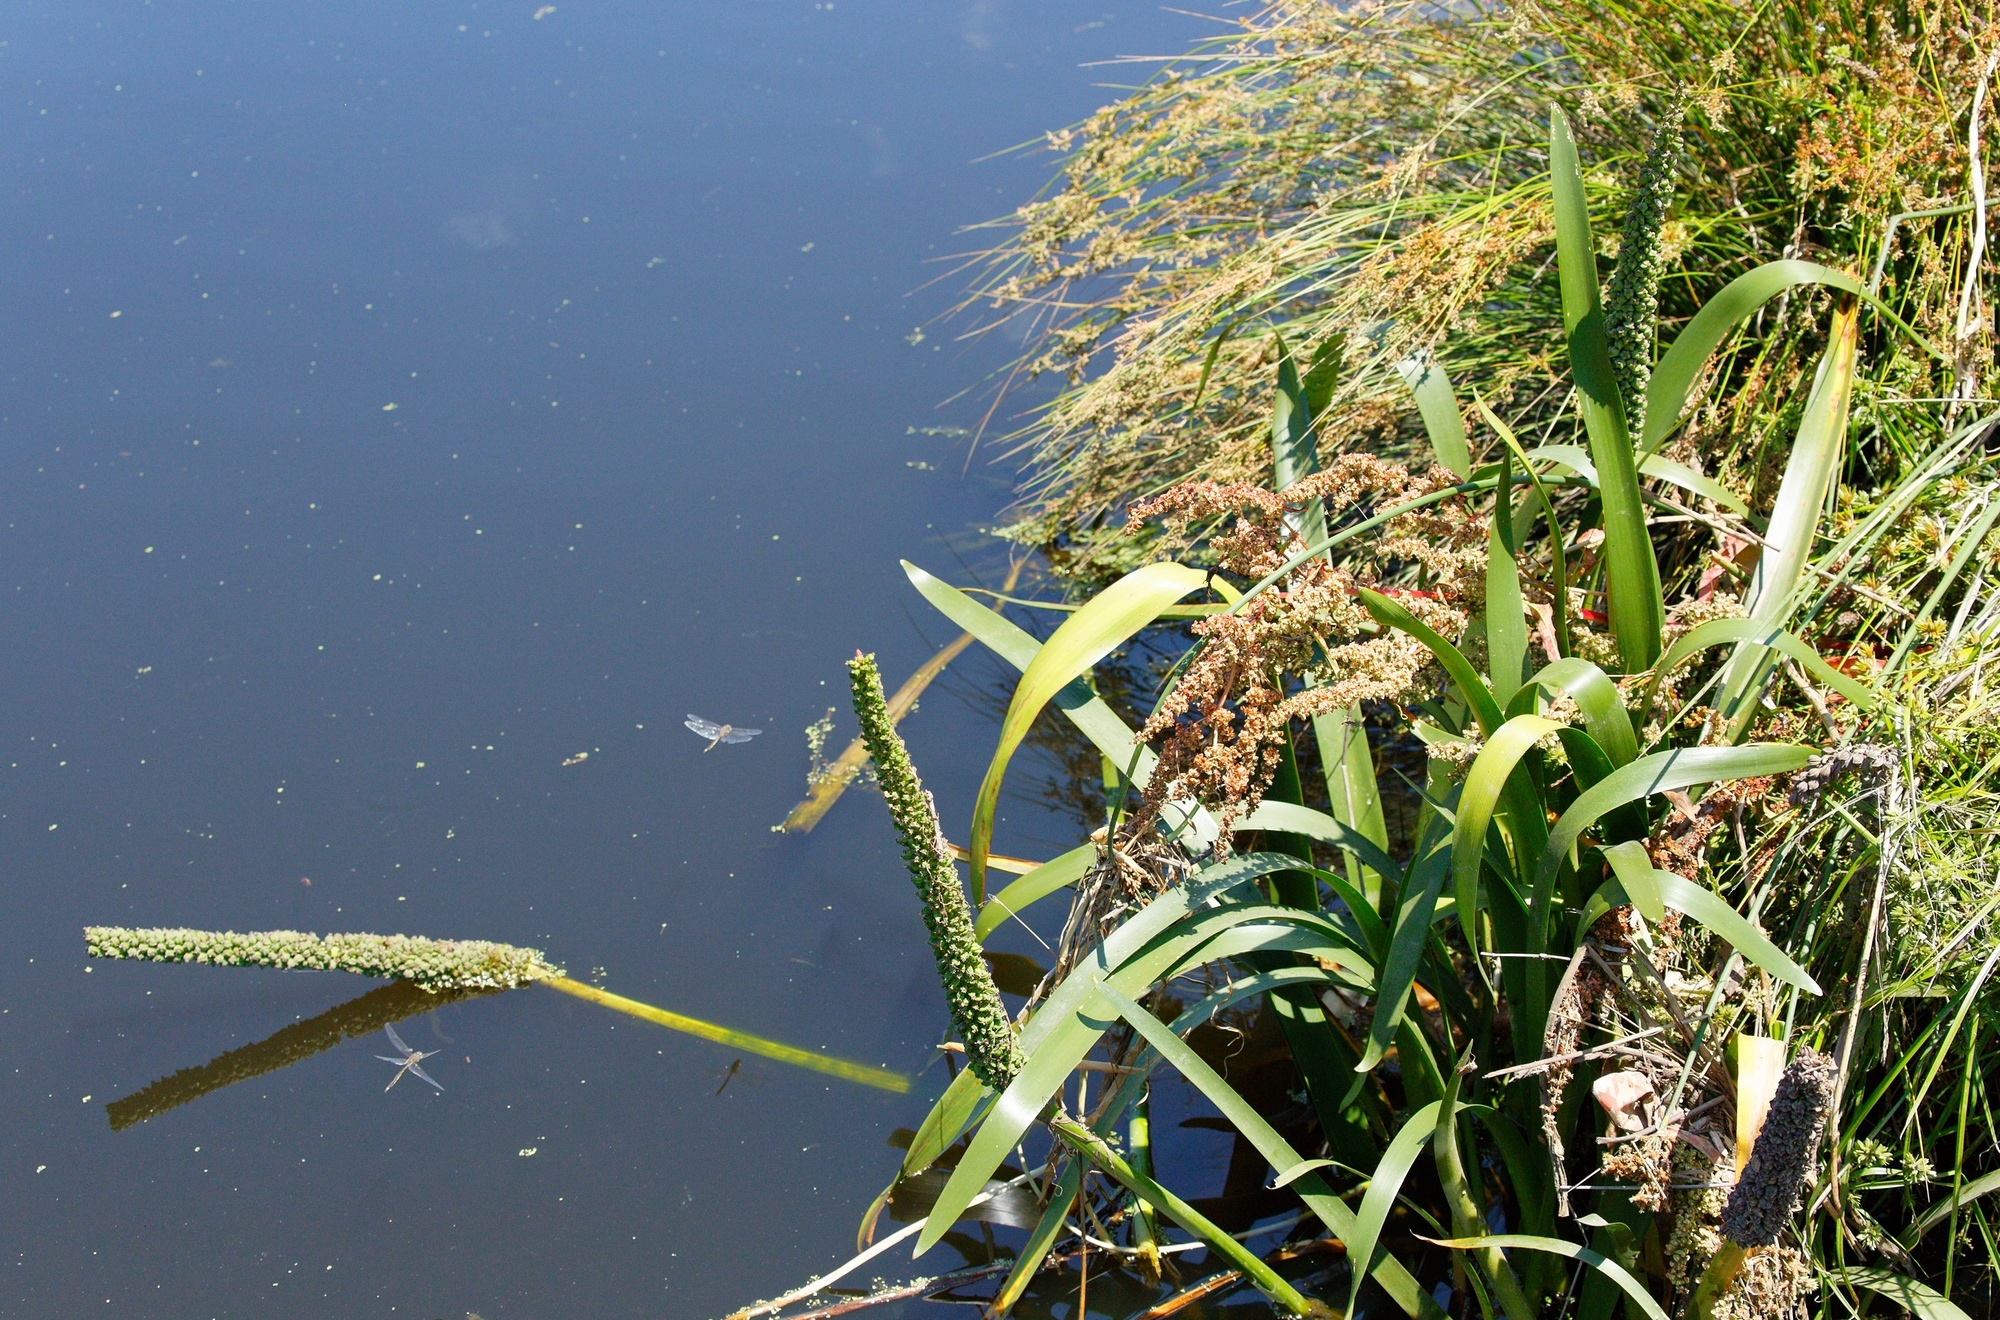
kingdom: Plantae
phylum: Tracheophyta
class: Liliopsida
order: Alismatales
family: Juncaginaceae
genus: Cycnogeton
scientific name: Cycnogeton procerum
